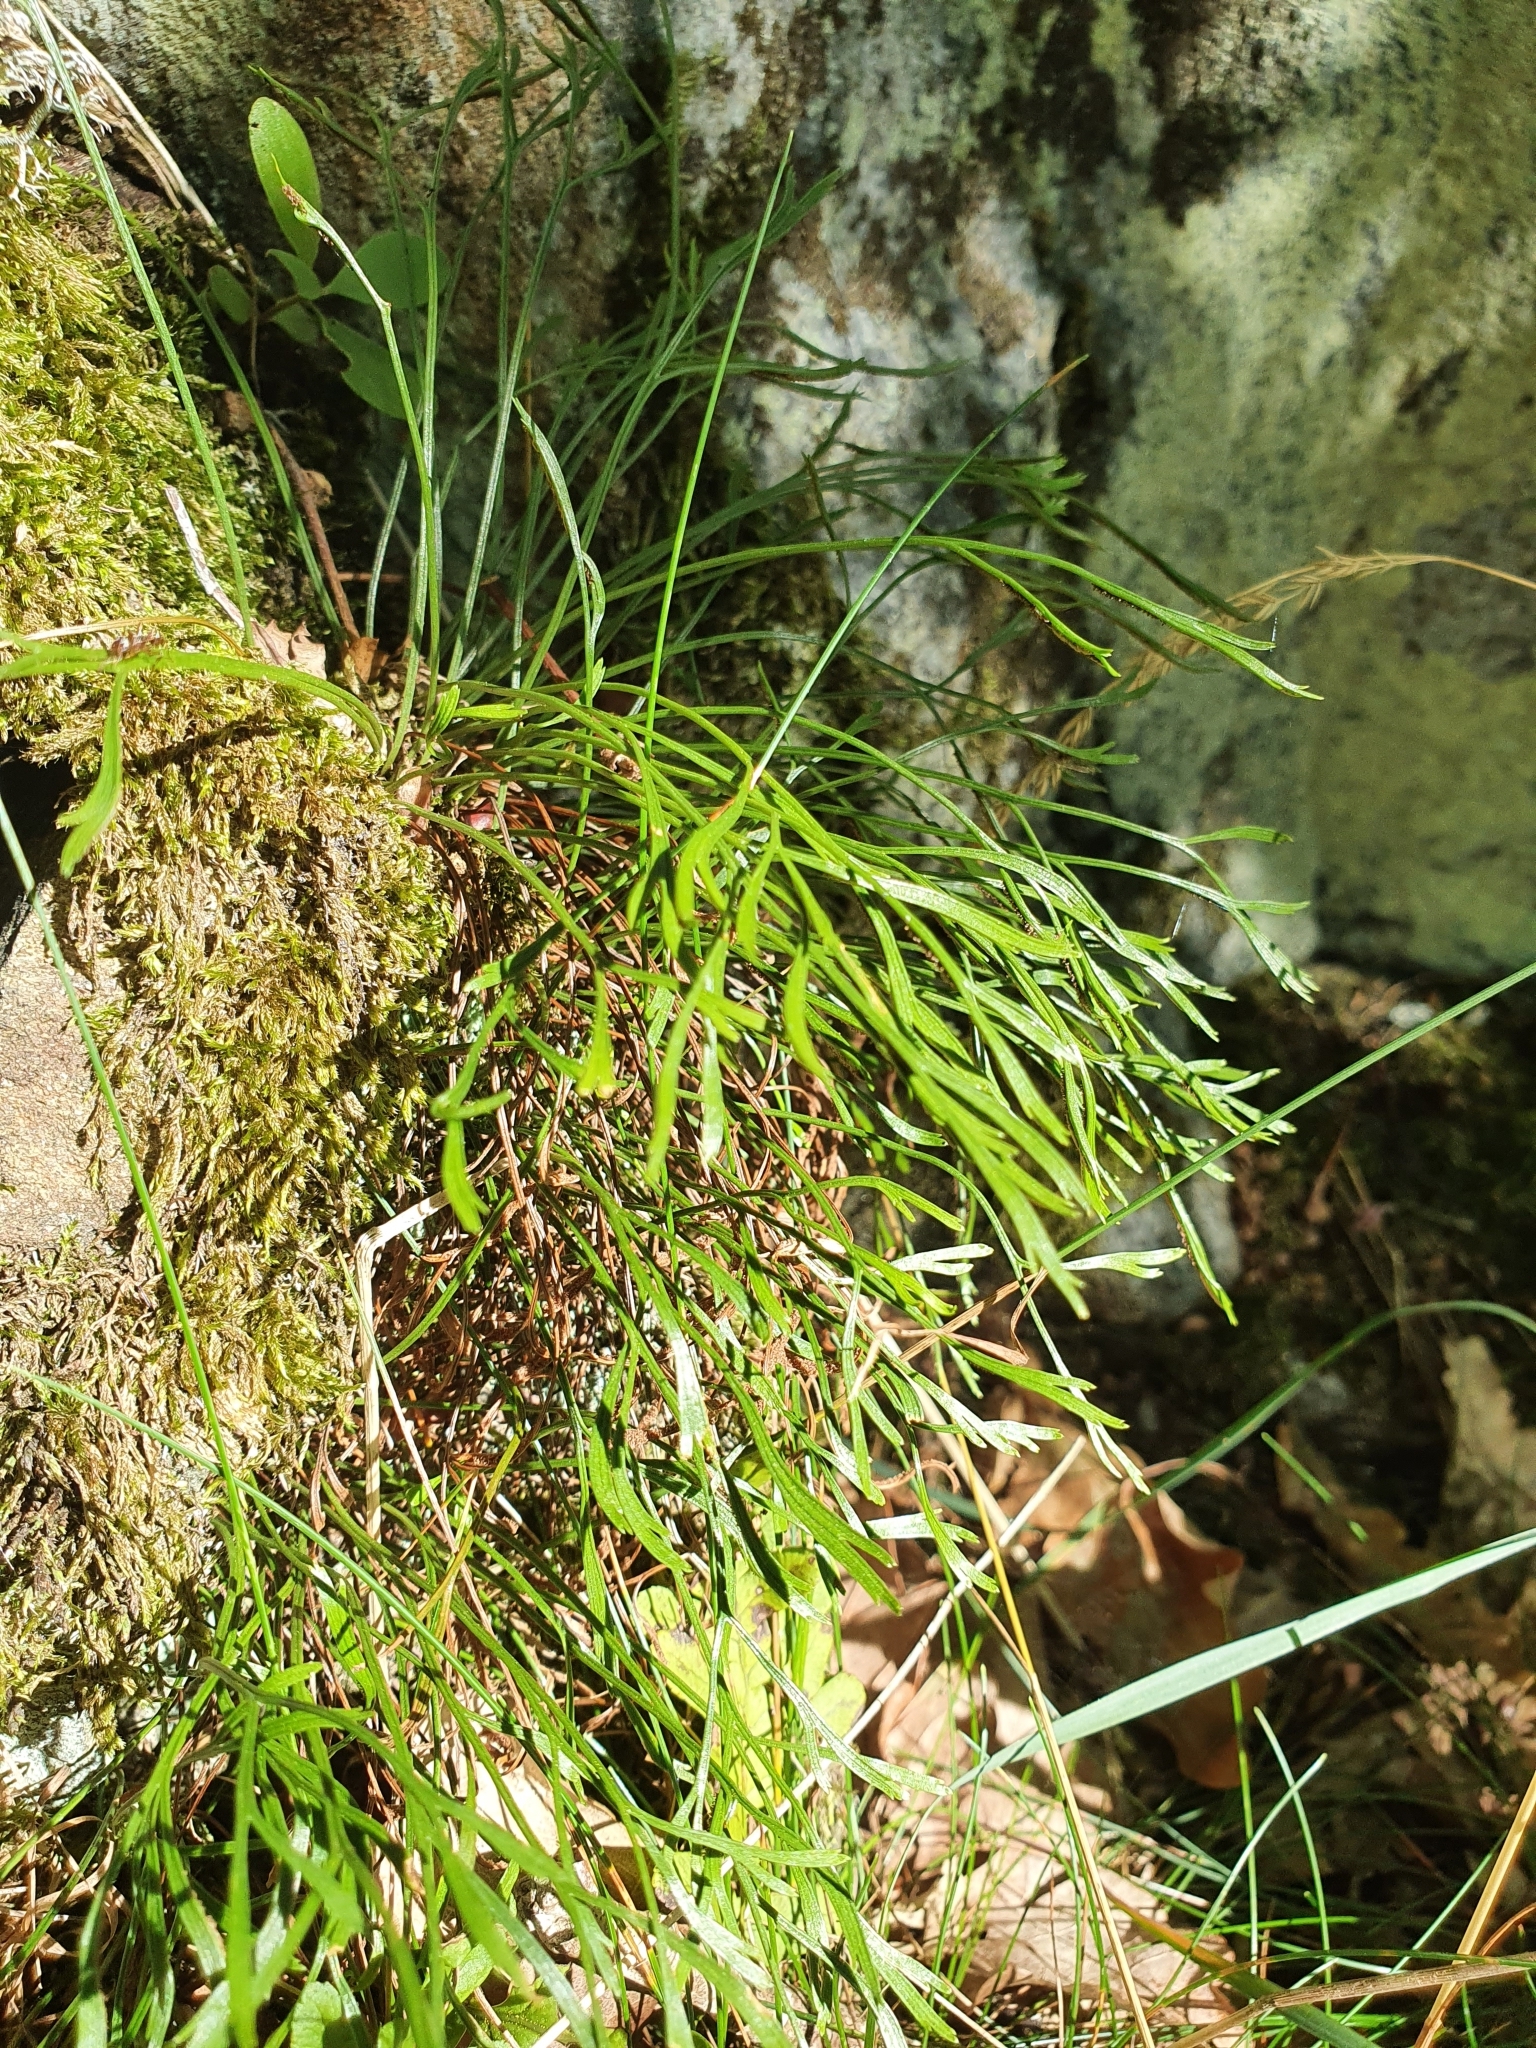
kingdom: Plantae
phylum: Tracheophyta
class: Polypodiopsida
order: Polypodiales
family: Aspleniaceae
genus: Asplenium
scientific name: Asplenium septentrionale
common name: Forked spleenwort
